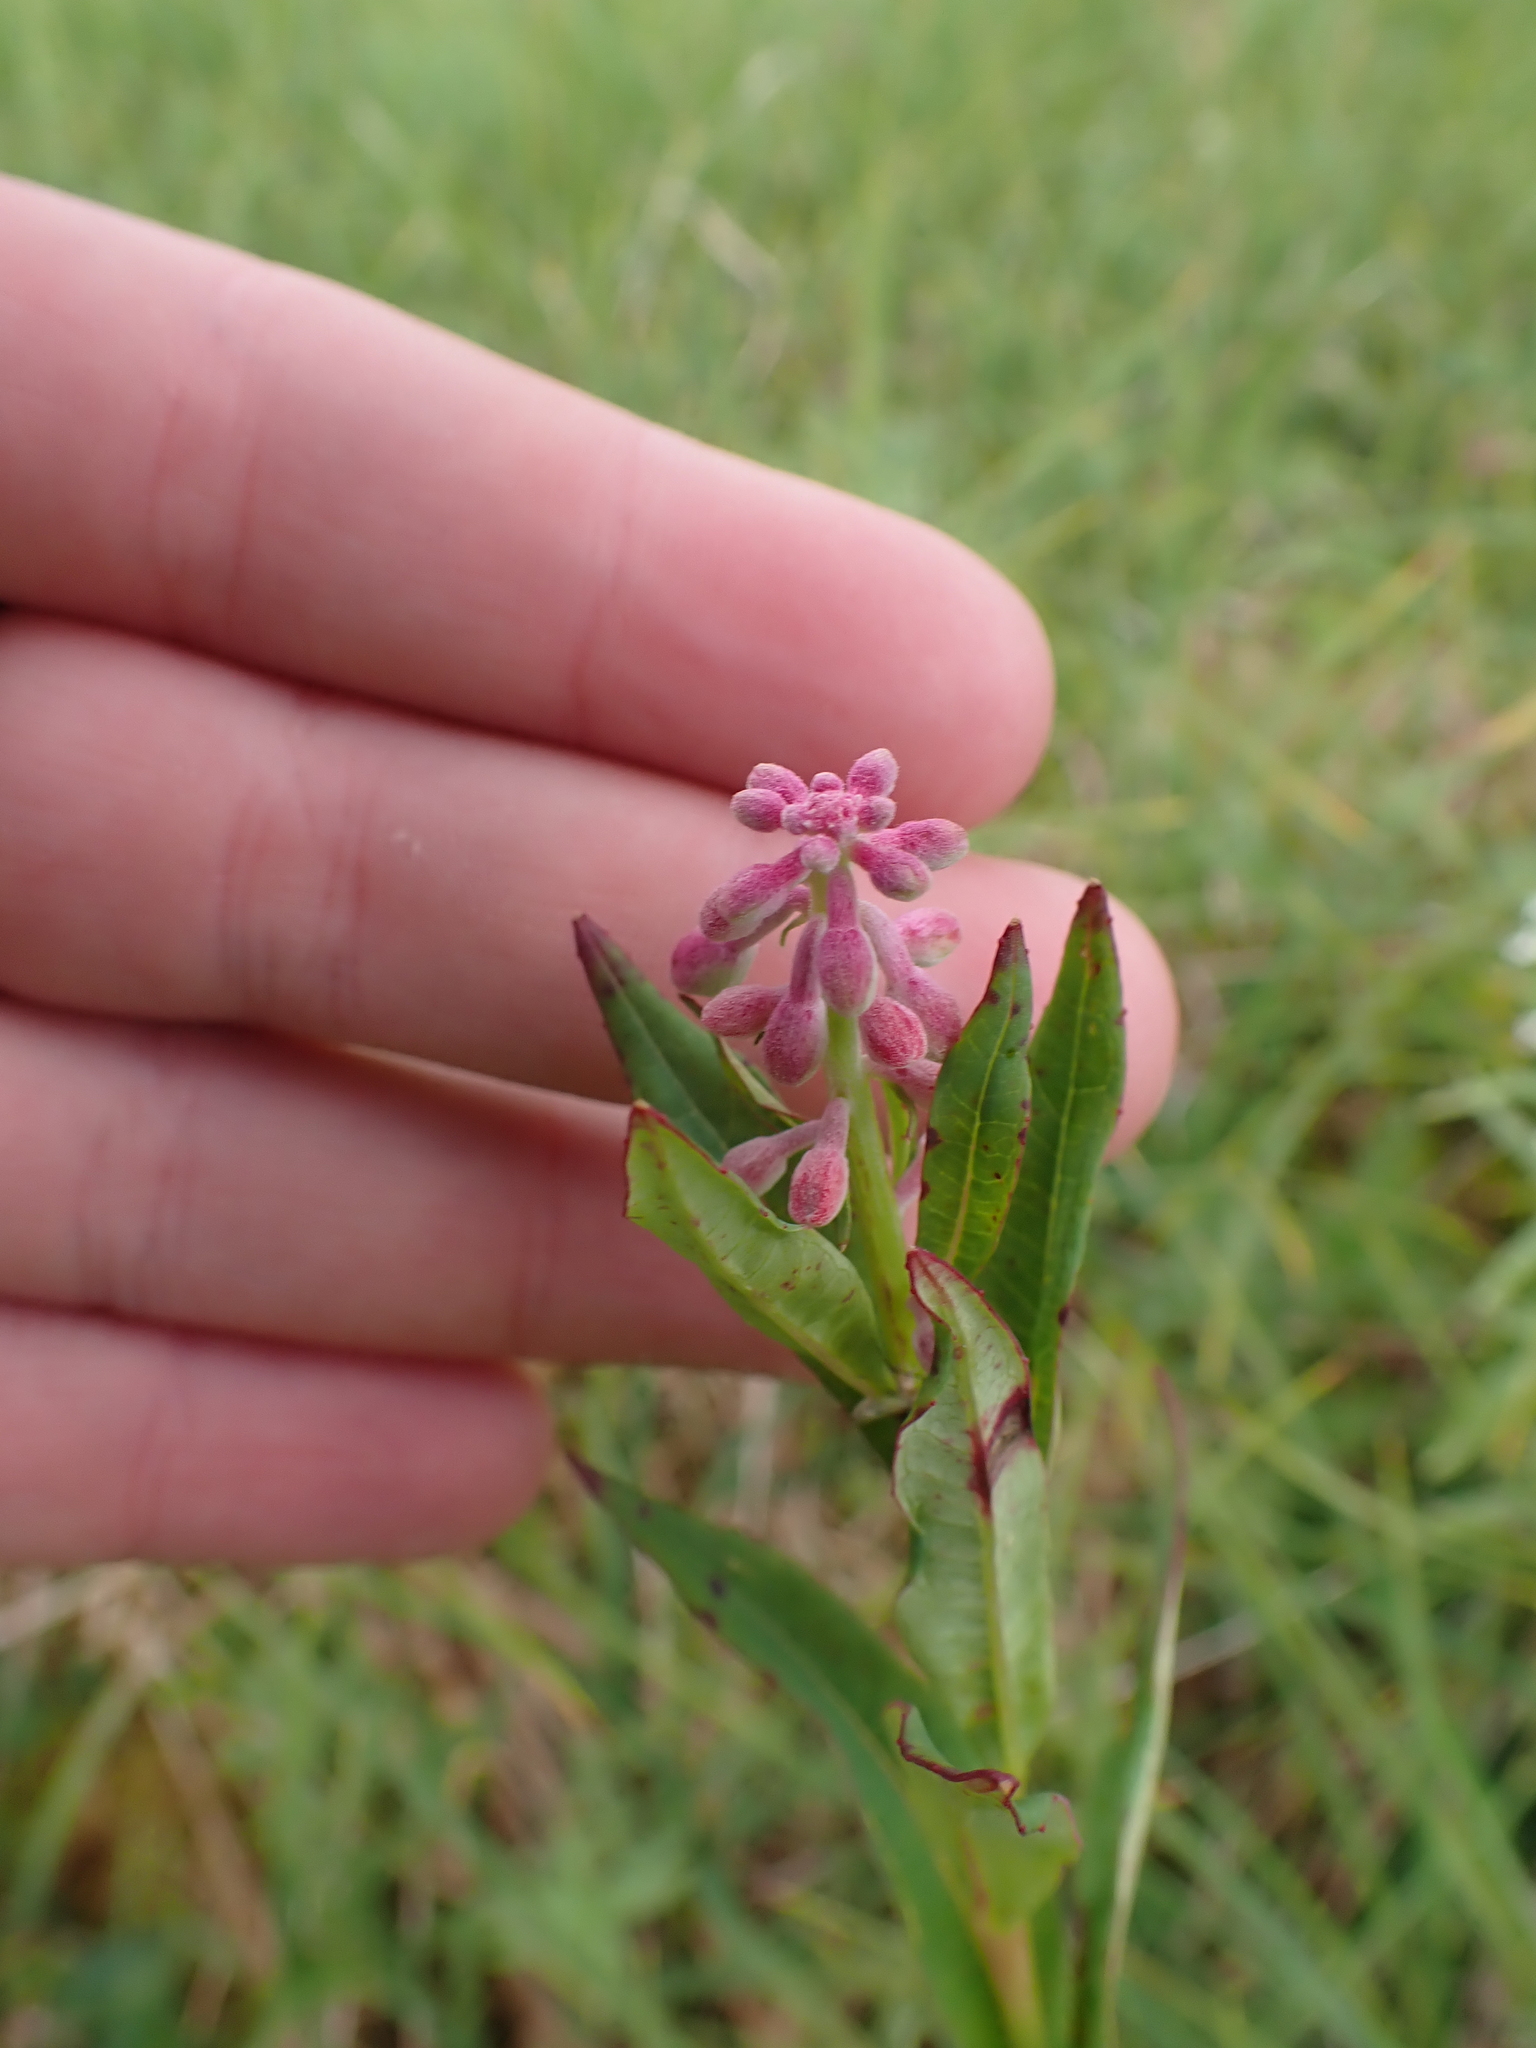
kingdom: Plantae
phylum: Tracheophyta
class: Magnoliopsida
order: Myrtales
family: Onagraceae
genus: Chamaenerion
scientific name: Chamaenerion angustifolium
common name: Fireweed
